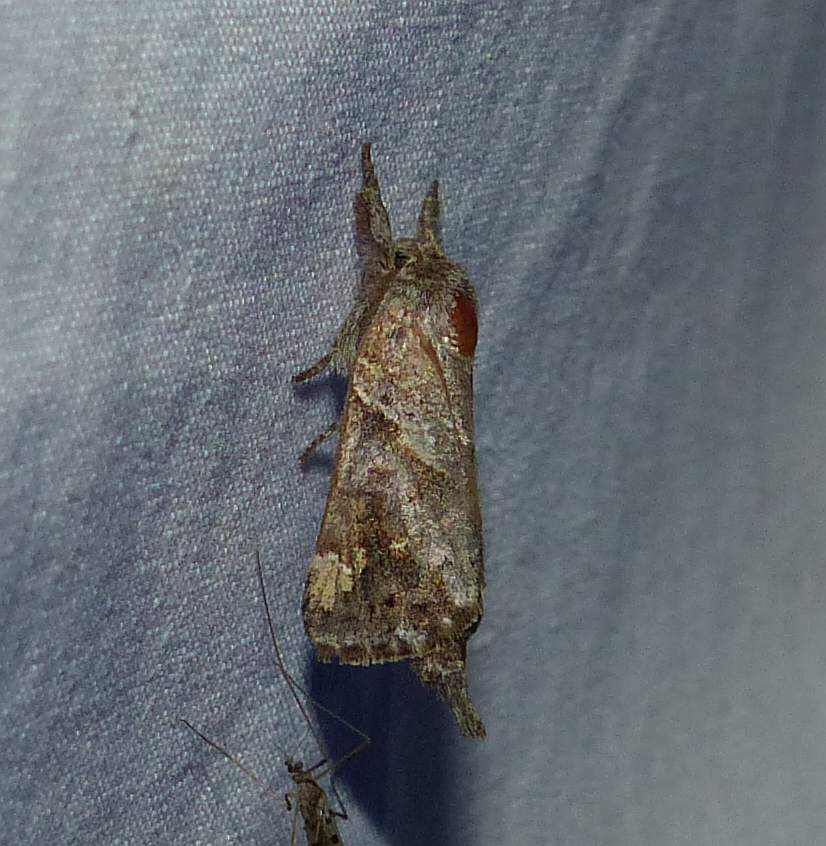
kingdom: Animalia
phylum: Arthropoda
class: Insecta
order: Lepidoptera
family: Notodontidae
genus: Clostera
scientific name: Clostera strigosa
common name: Striped chocolate-tip moth
